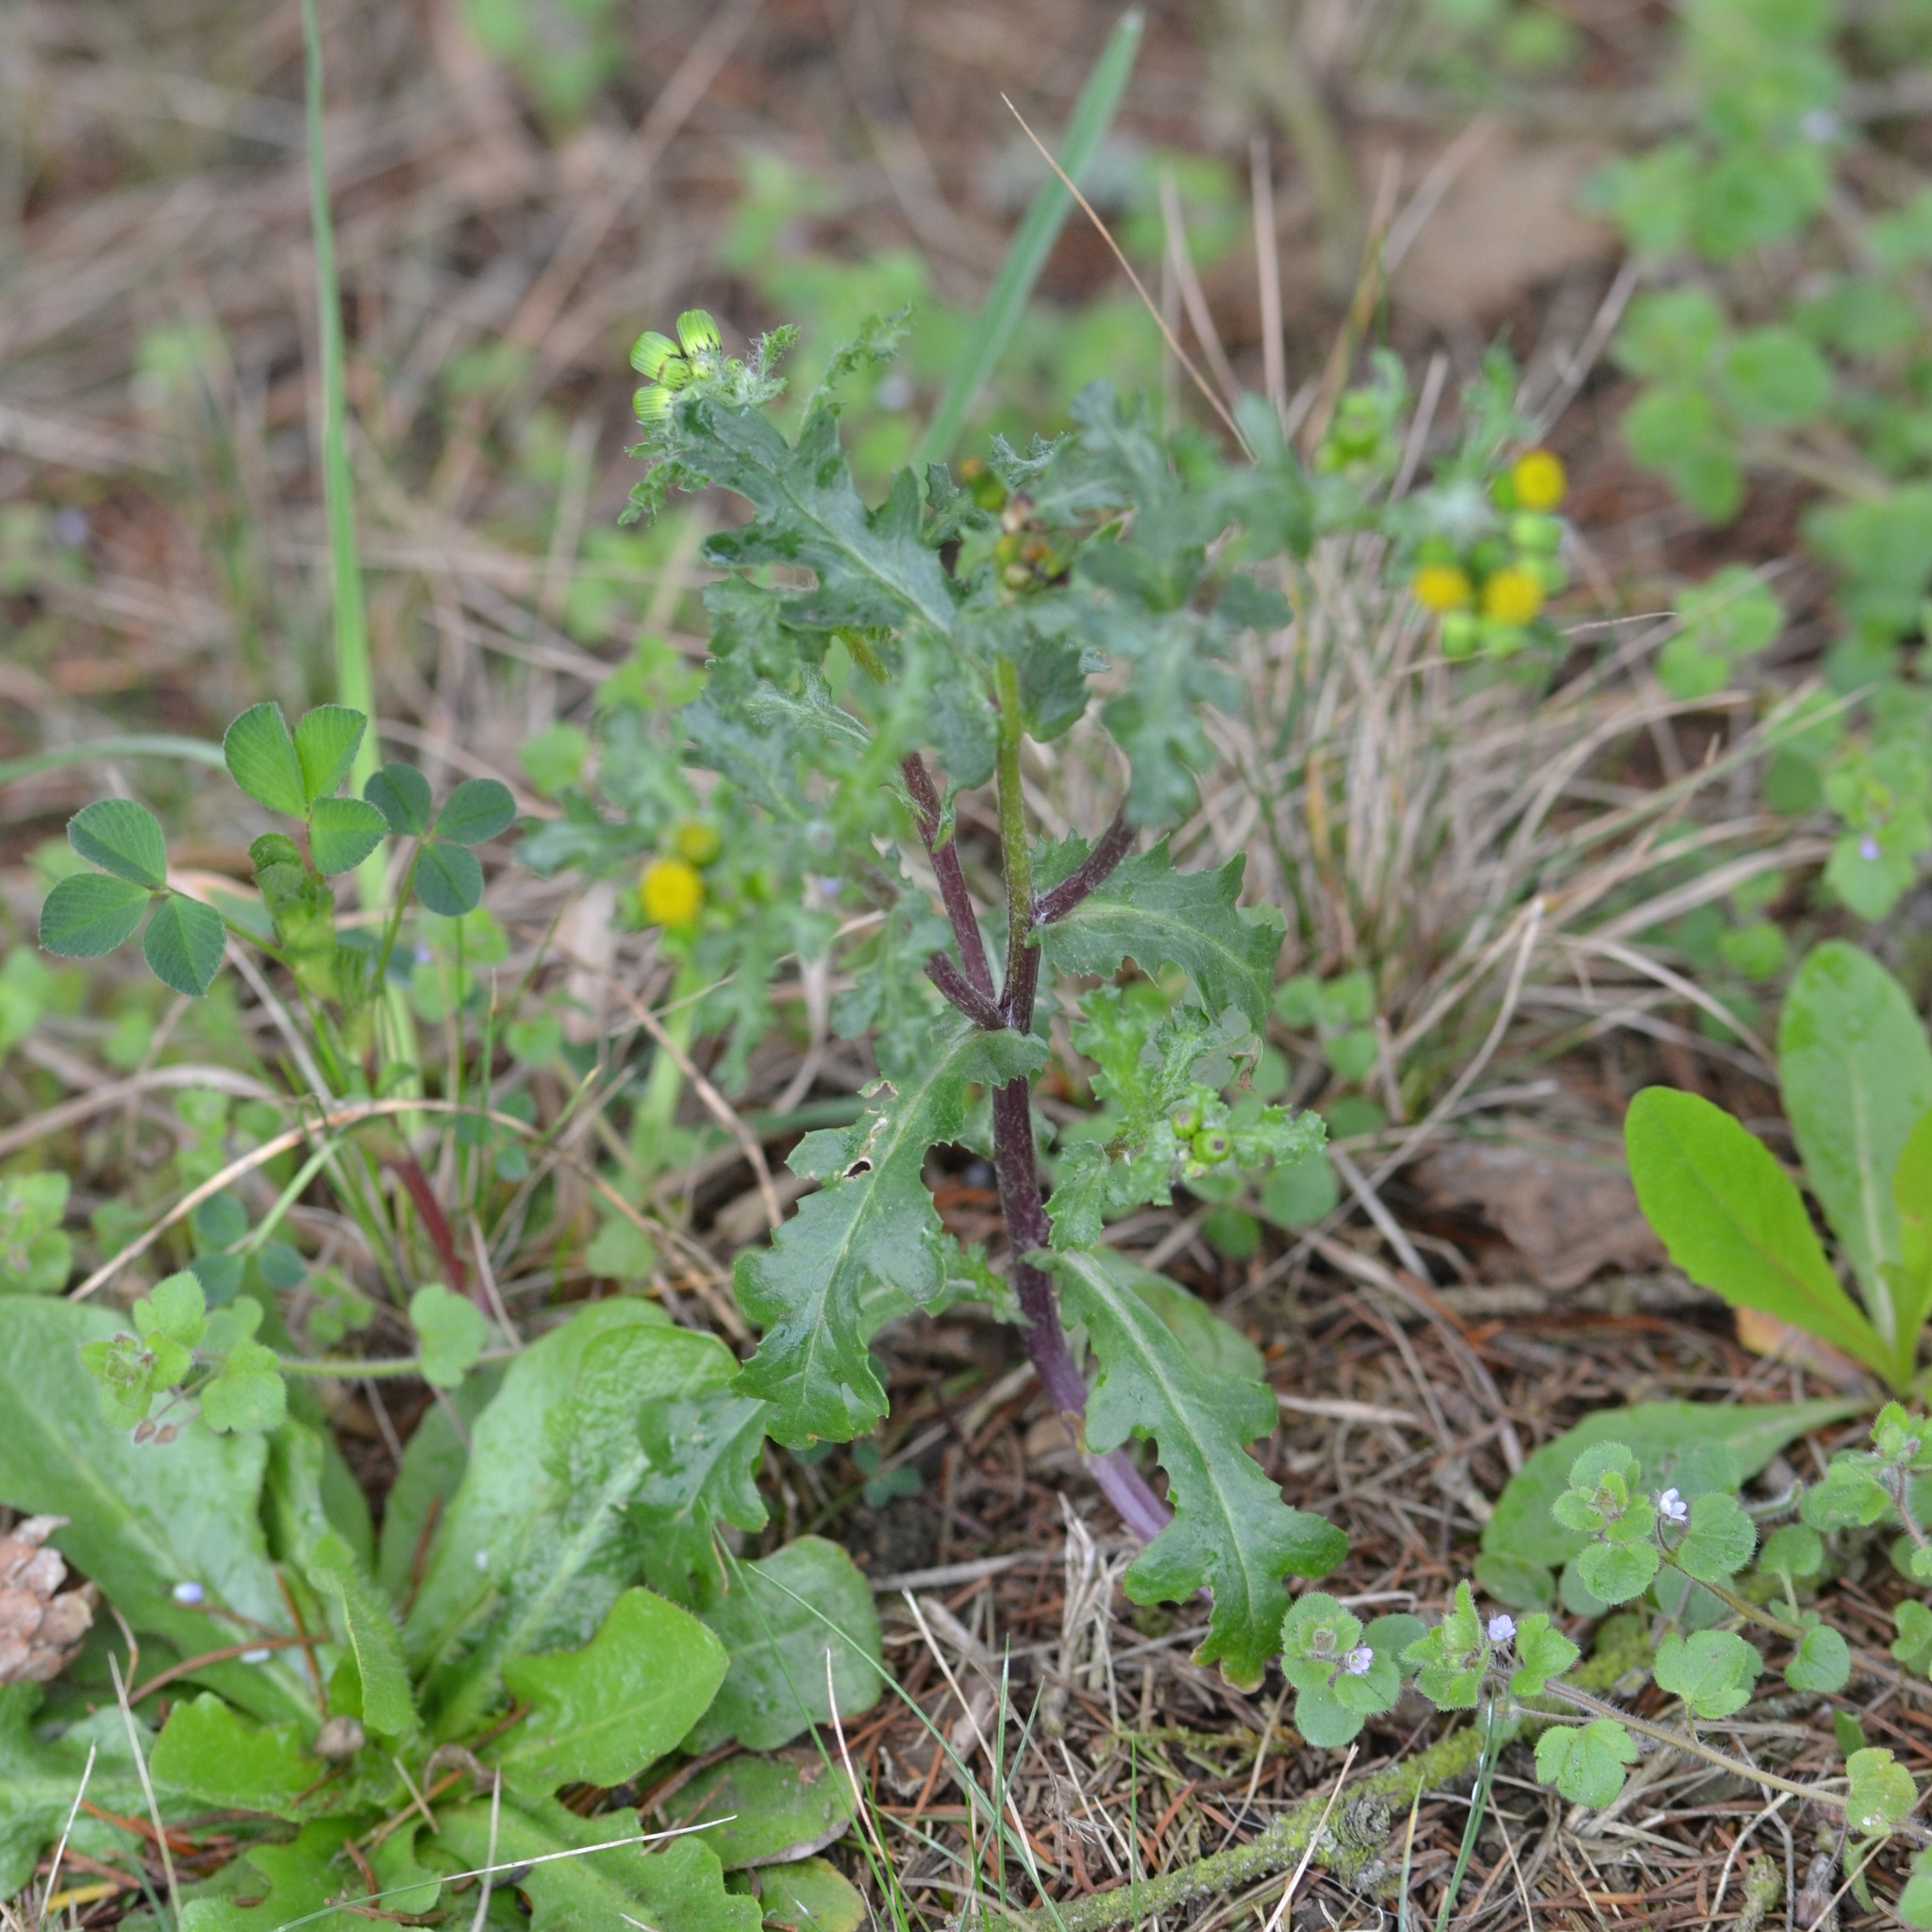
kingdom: Plantae
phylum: Tracheophyta
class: Magnoliopsida
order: Asterales
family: Asteraceae
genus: Senecio
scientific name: Senecio vulgaris
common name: Old-man-in-the-spring
